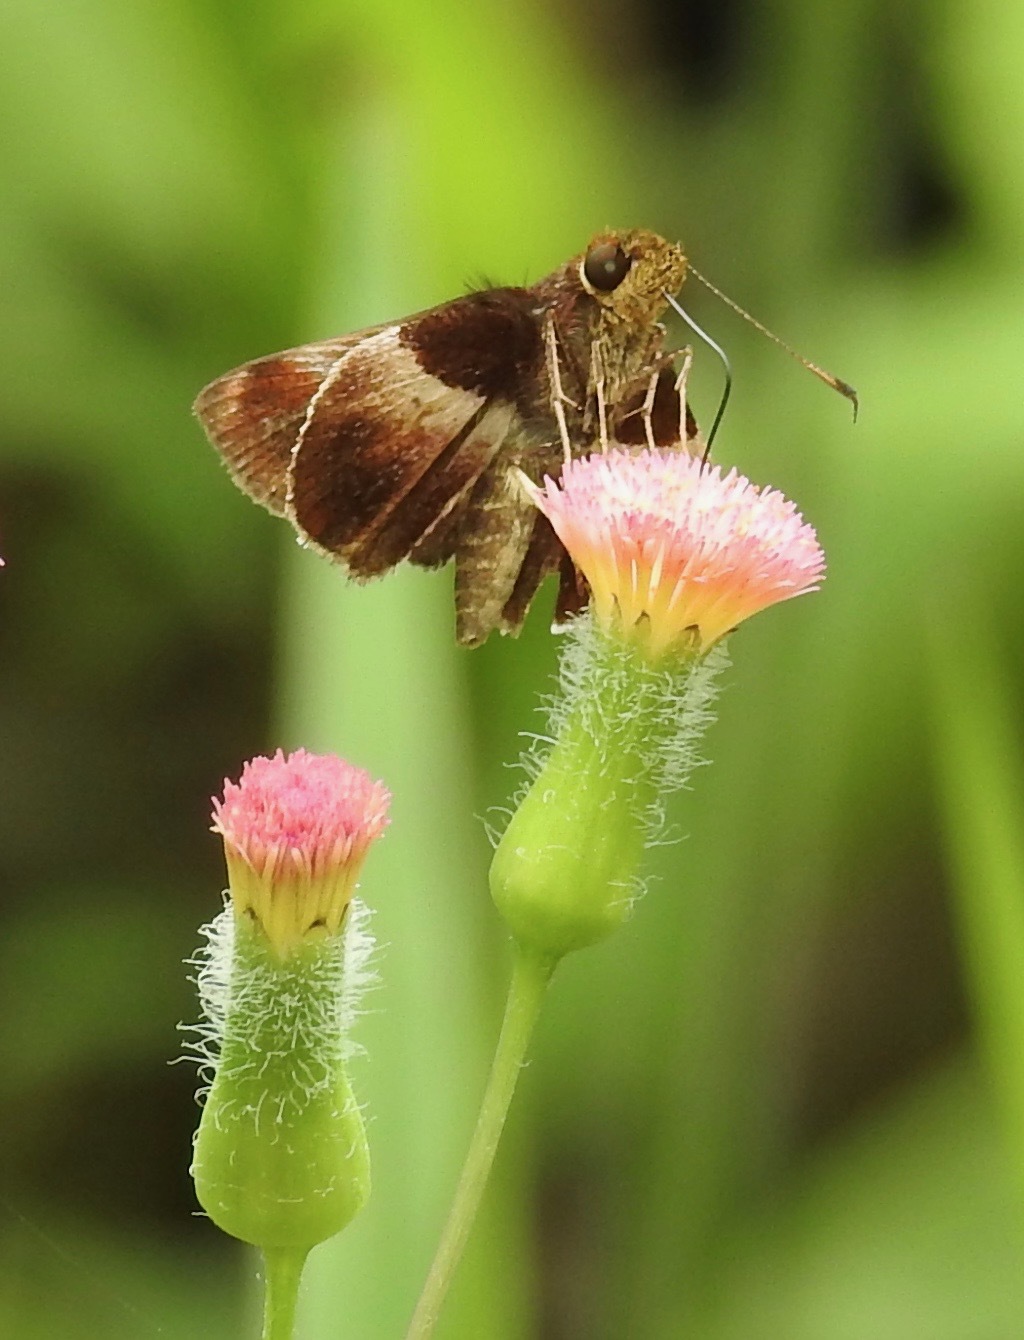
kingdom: Animalia
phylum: Arthropoda
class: Insecta
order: Lepidoptera
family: Hesperiidae
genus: Moeris
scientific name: Moeris Remella vopiscus
